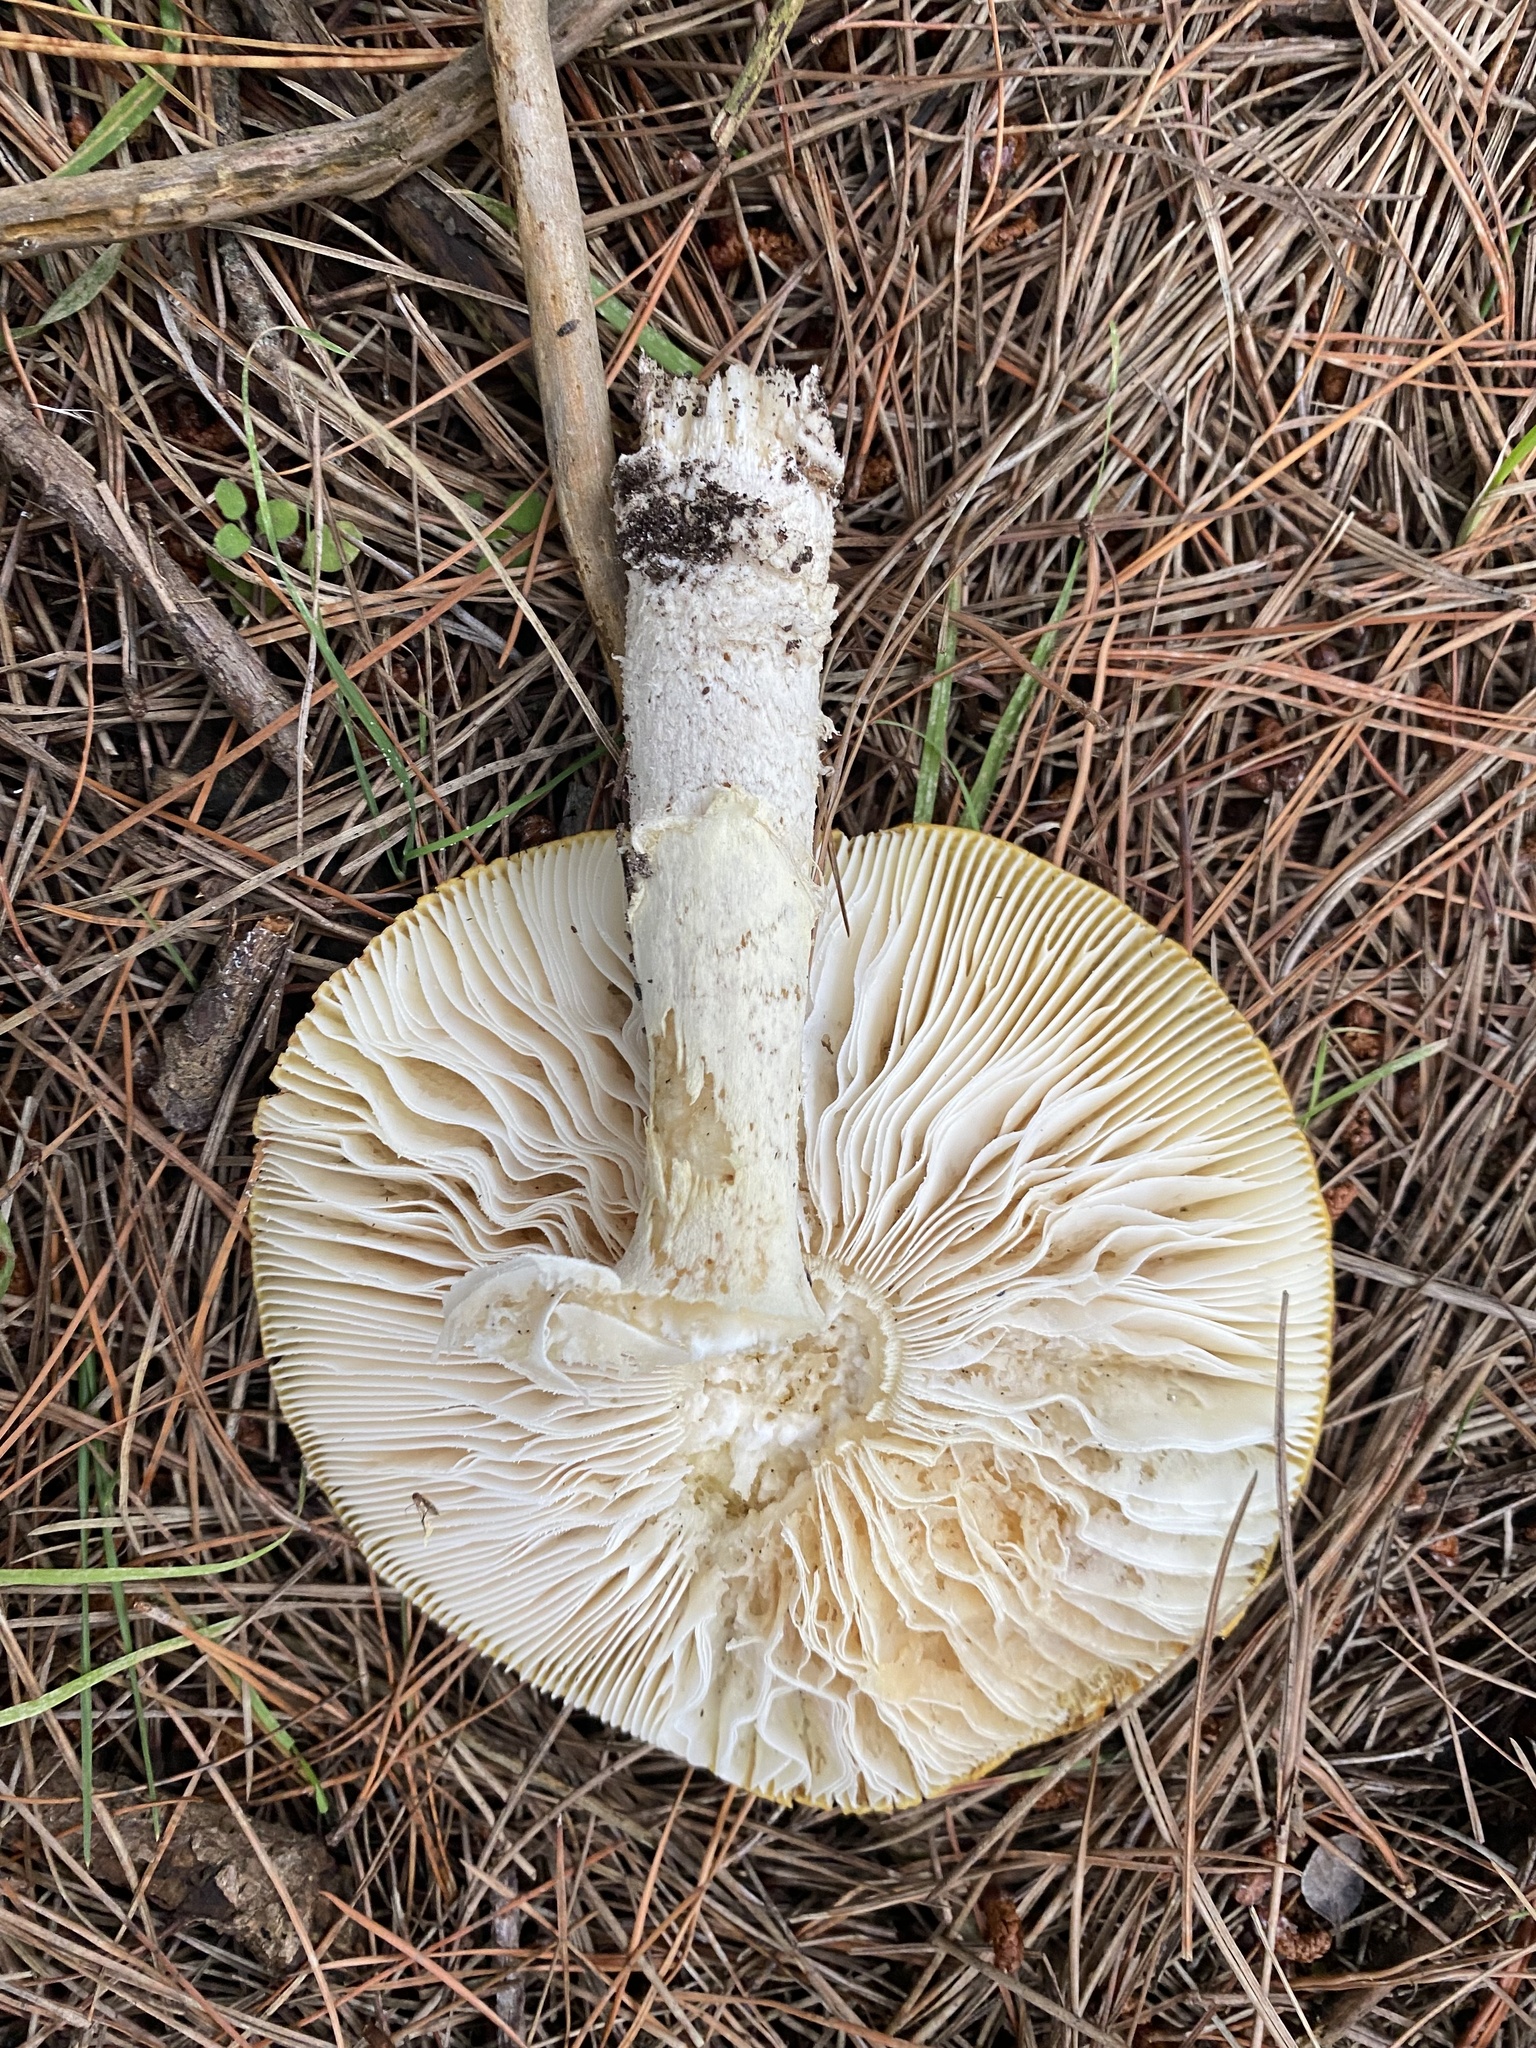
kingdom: Fungi
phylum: Basidiomycota
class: Agaricomycetes
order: Agaricales
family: Amanitaceae
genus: Amanita
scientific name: Amanita muscaria
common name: Fly agaric
